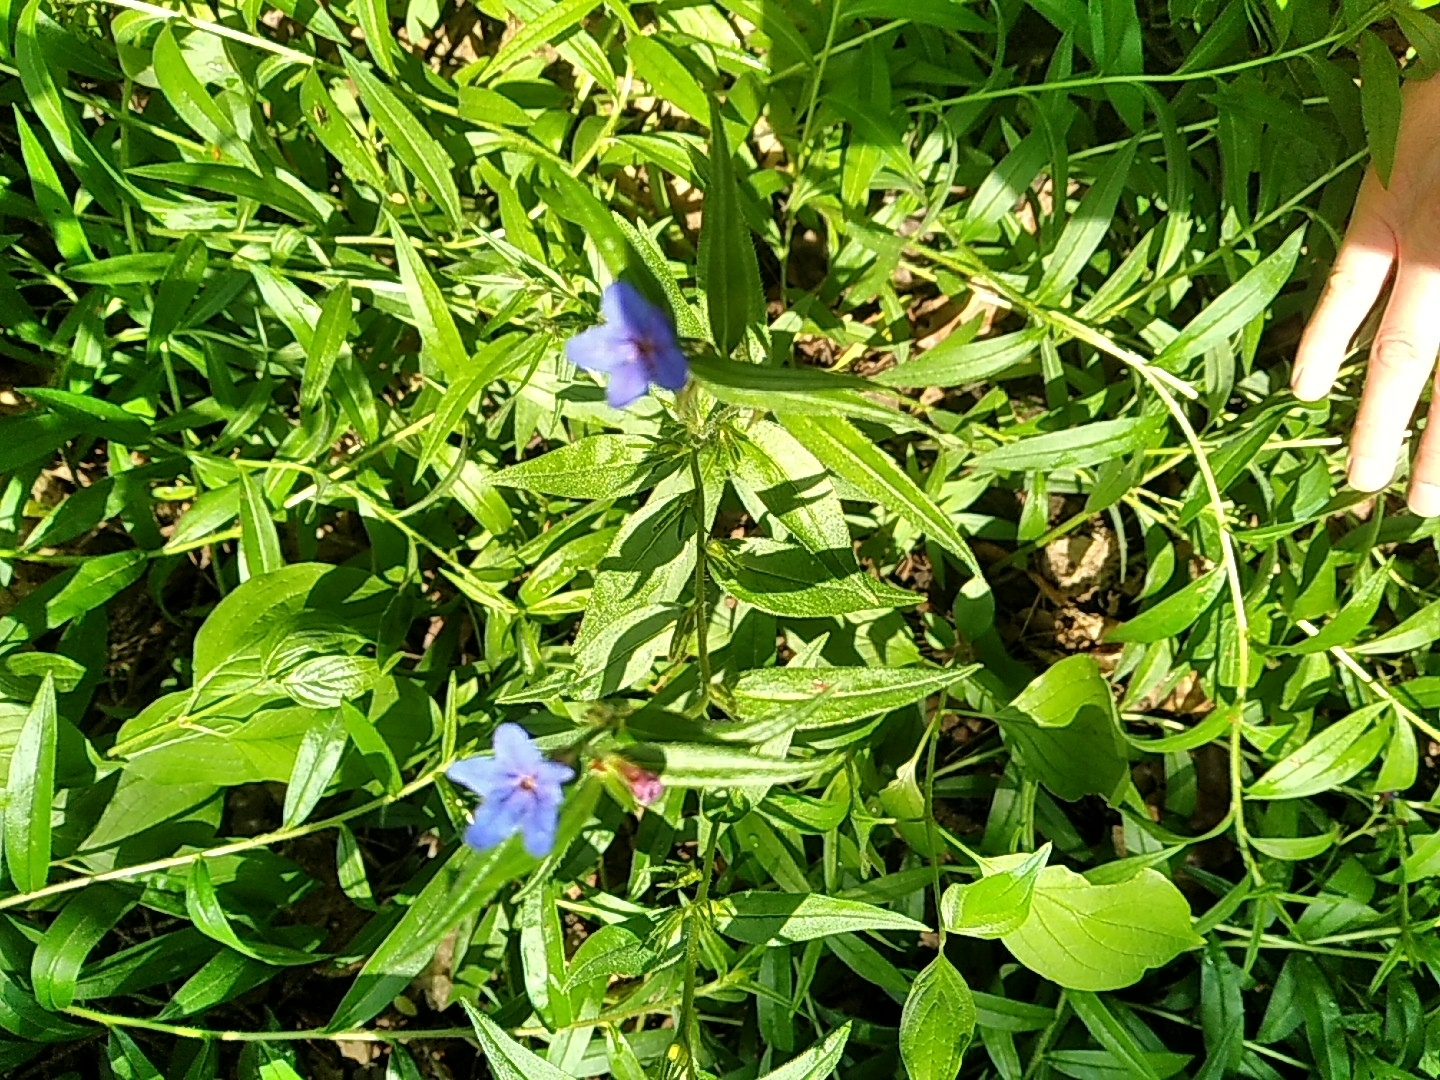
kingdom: Plantae
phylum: Tracheophyta
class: Magnoliopsida
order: Boraginales
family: Boraginaceae
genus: Aegonychon
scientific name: Aegonychon purpurocaeruleum
